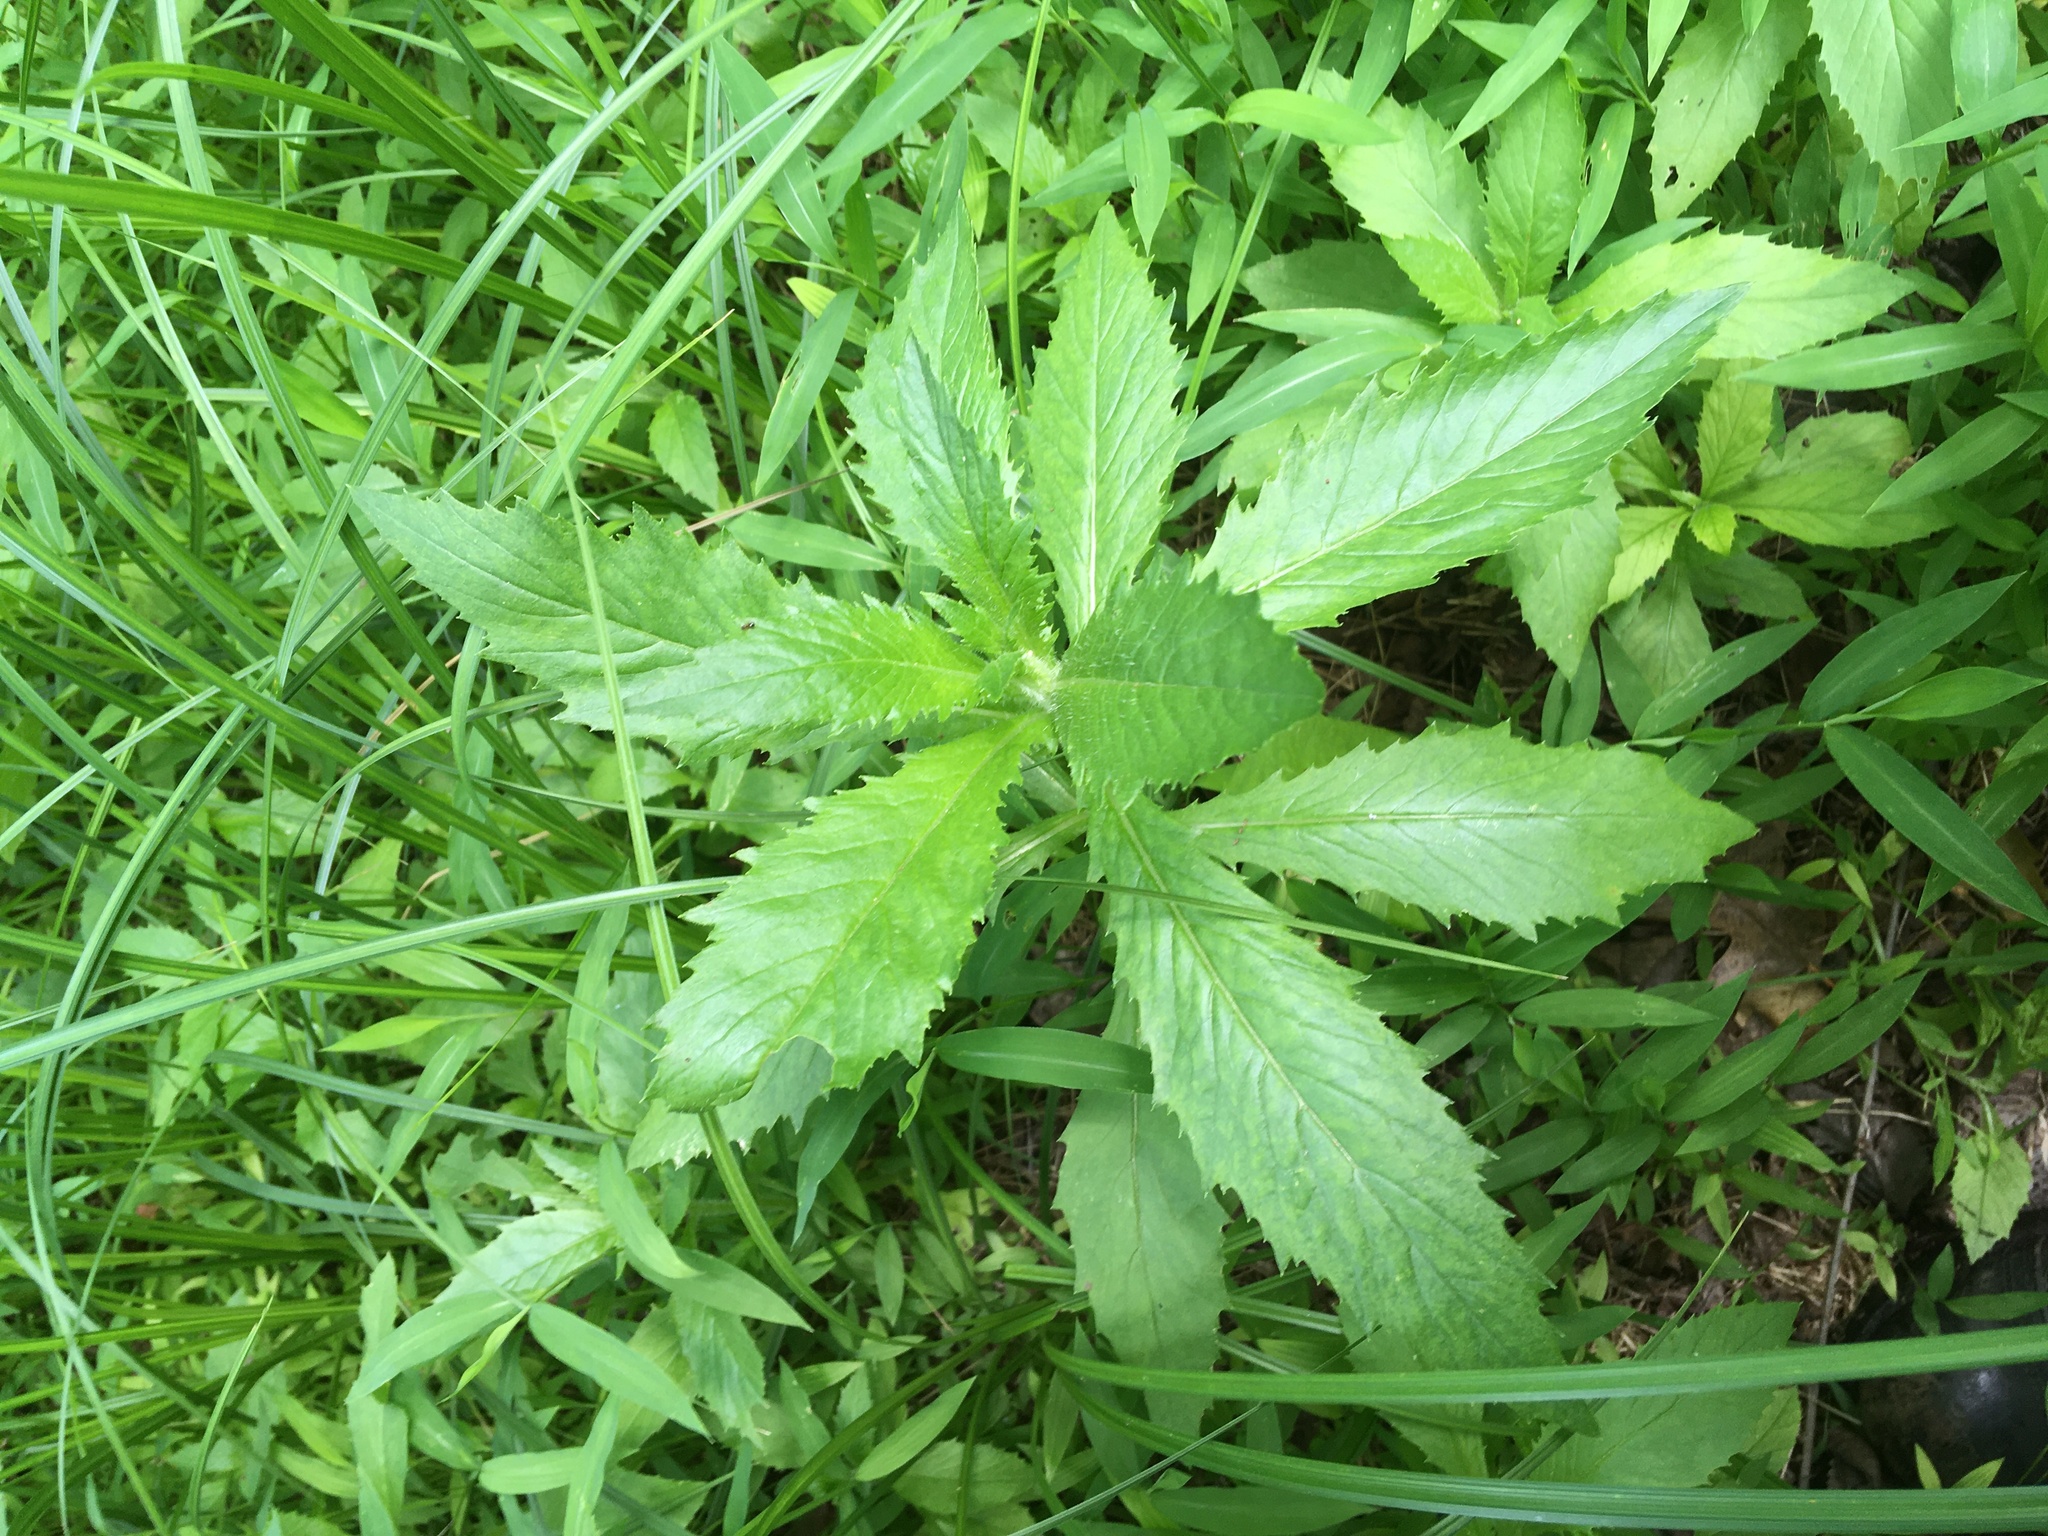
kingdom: Plantae
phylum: Tracheophyta
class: Magnoliopsida
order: Asterales
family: Asteraceae
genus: Erechtites
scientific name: Erechtites hieraciifolius
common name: American burnweed
